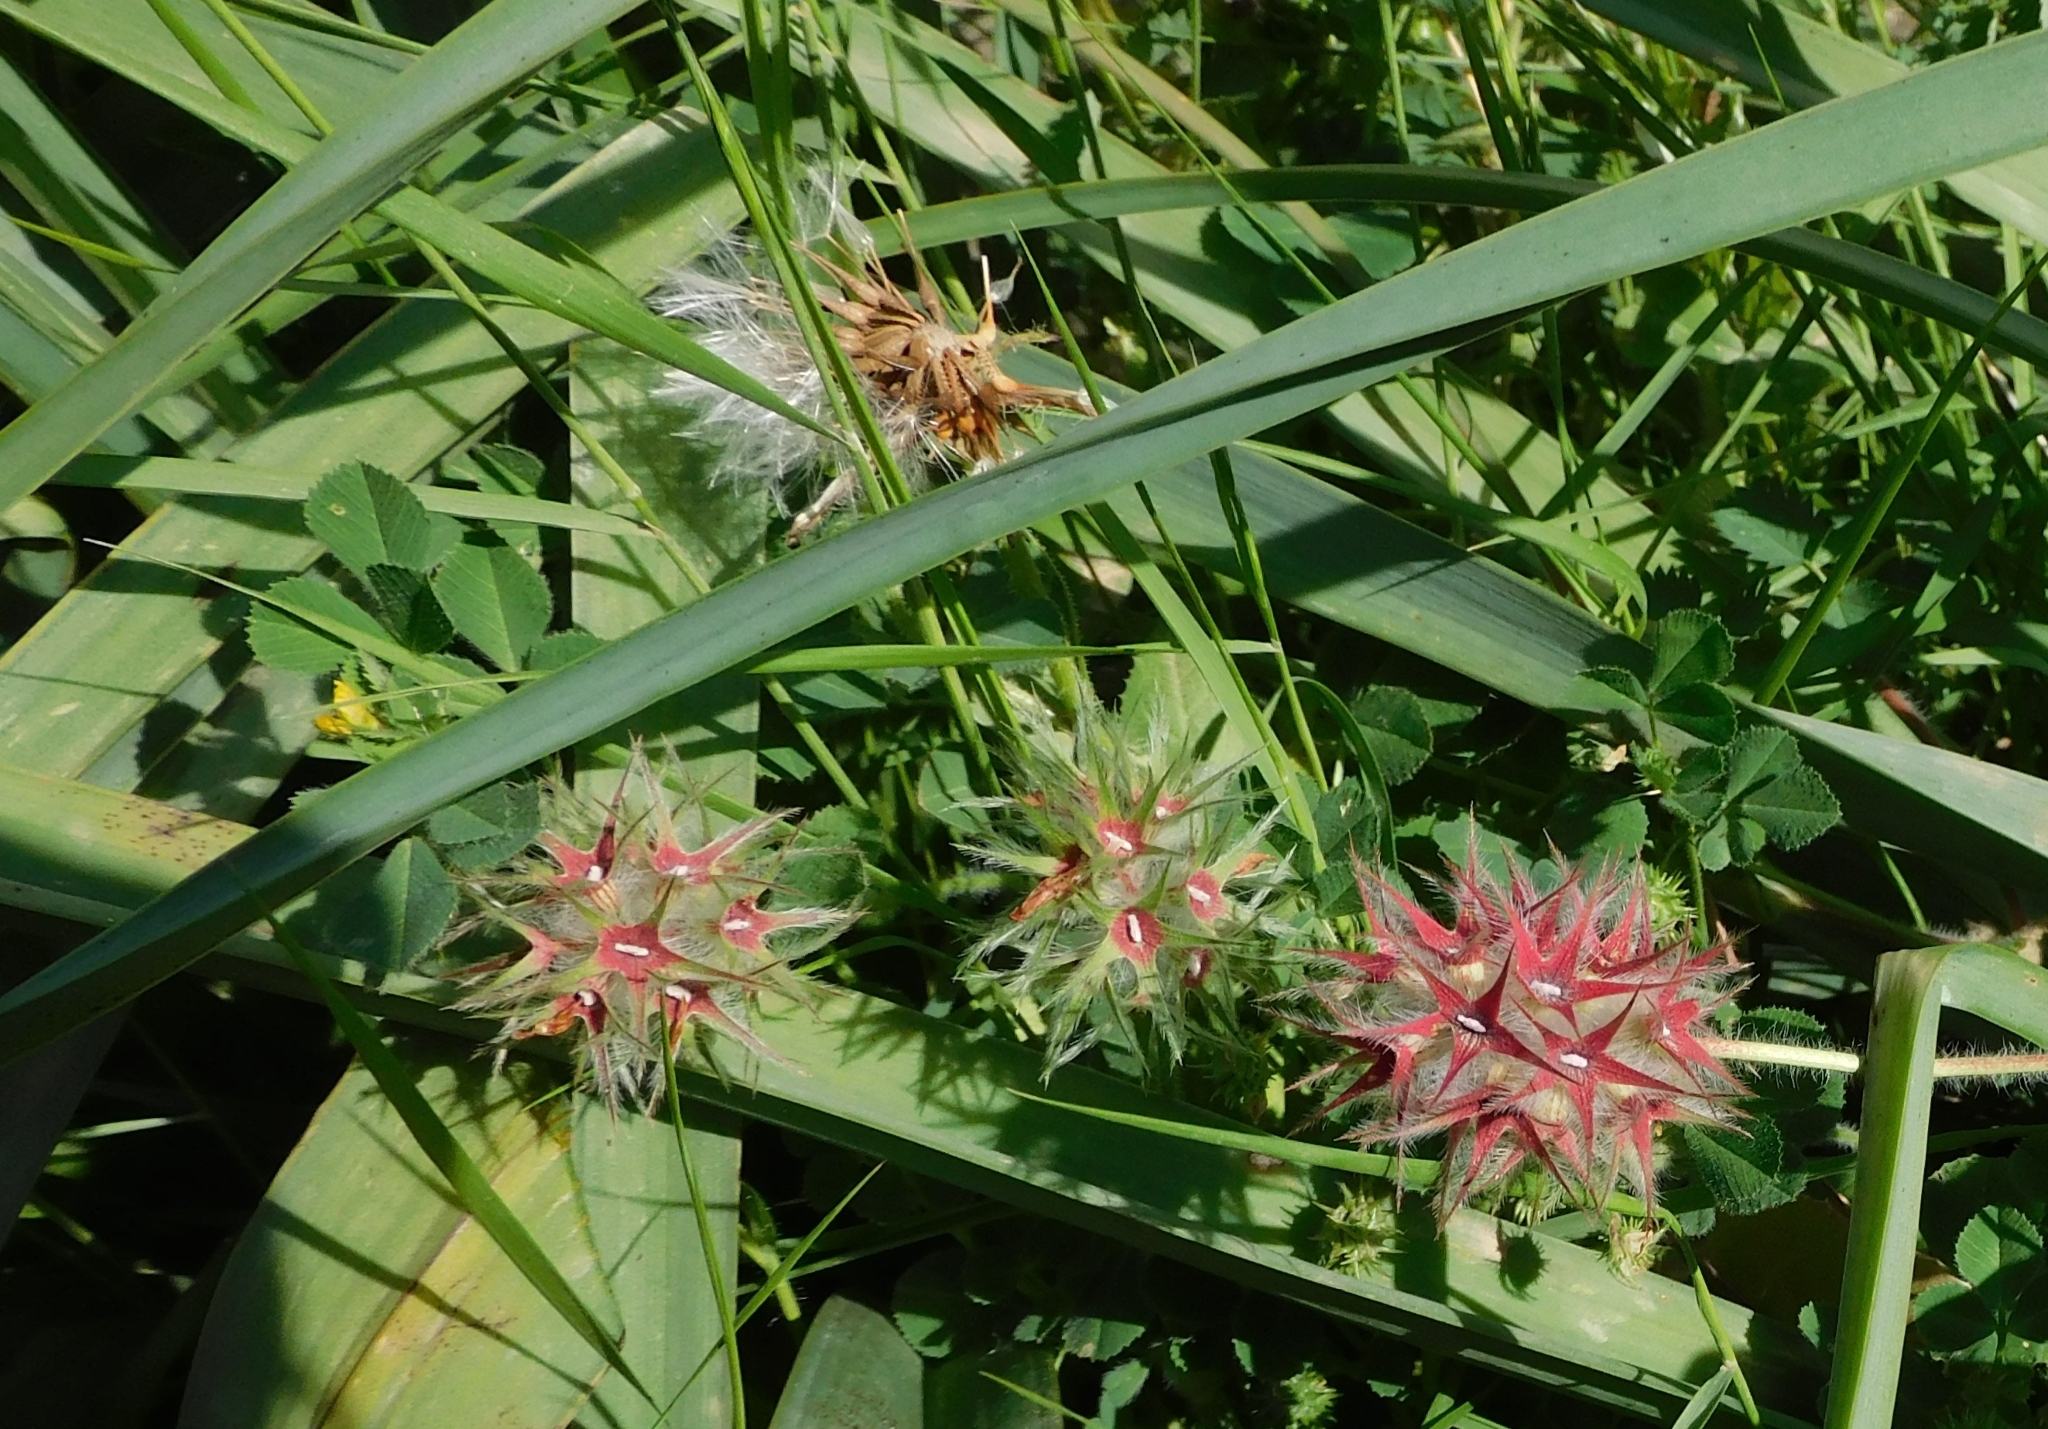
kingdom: Plantae
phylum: Tracheophyta
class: Magnoliopsida
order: Fabales
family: Fabaceae
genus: Trifolium
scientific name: Trifolium stellatum
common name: Starry clover
